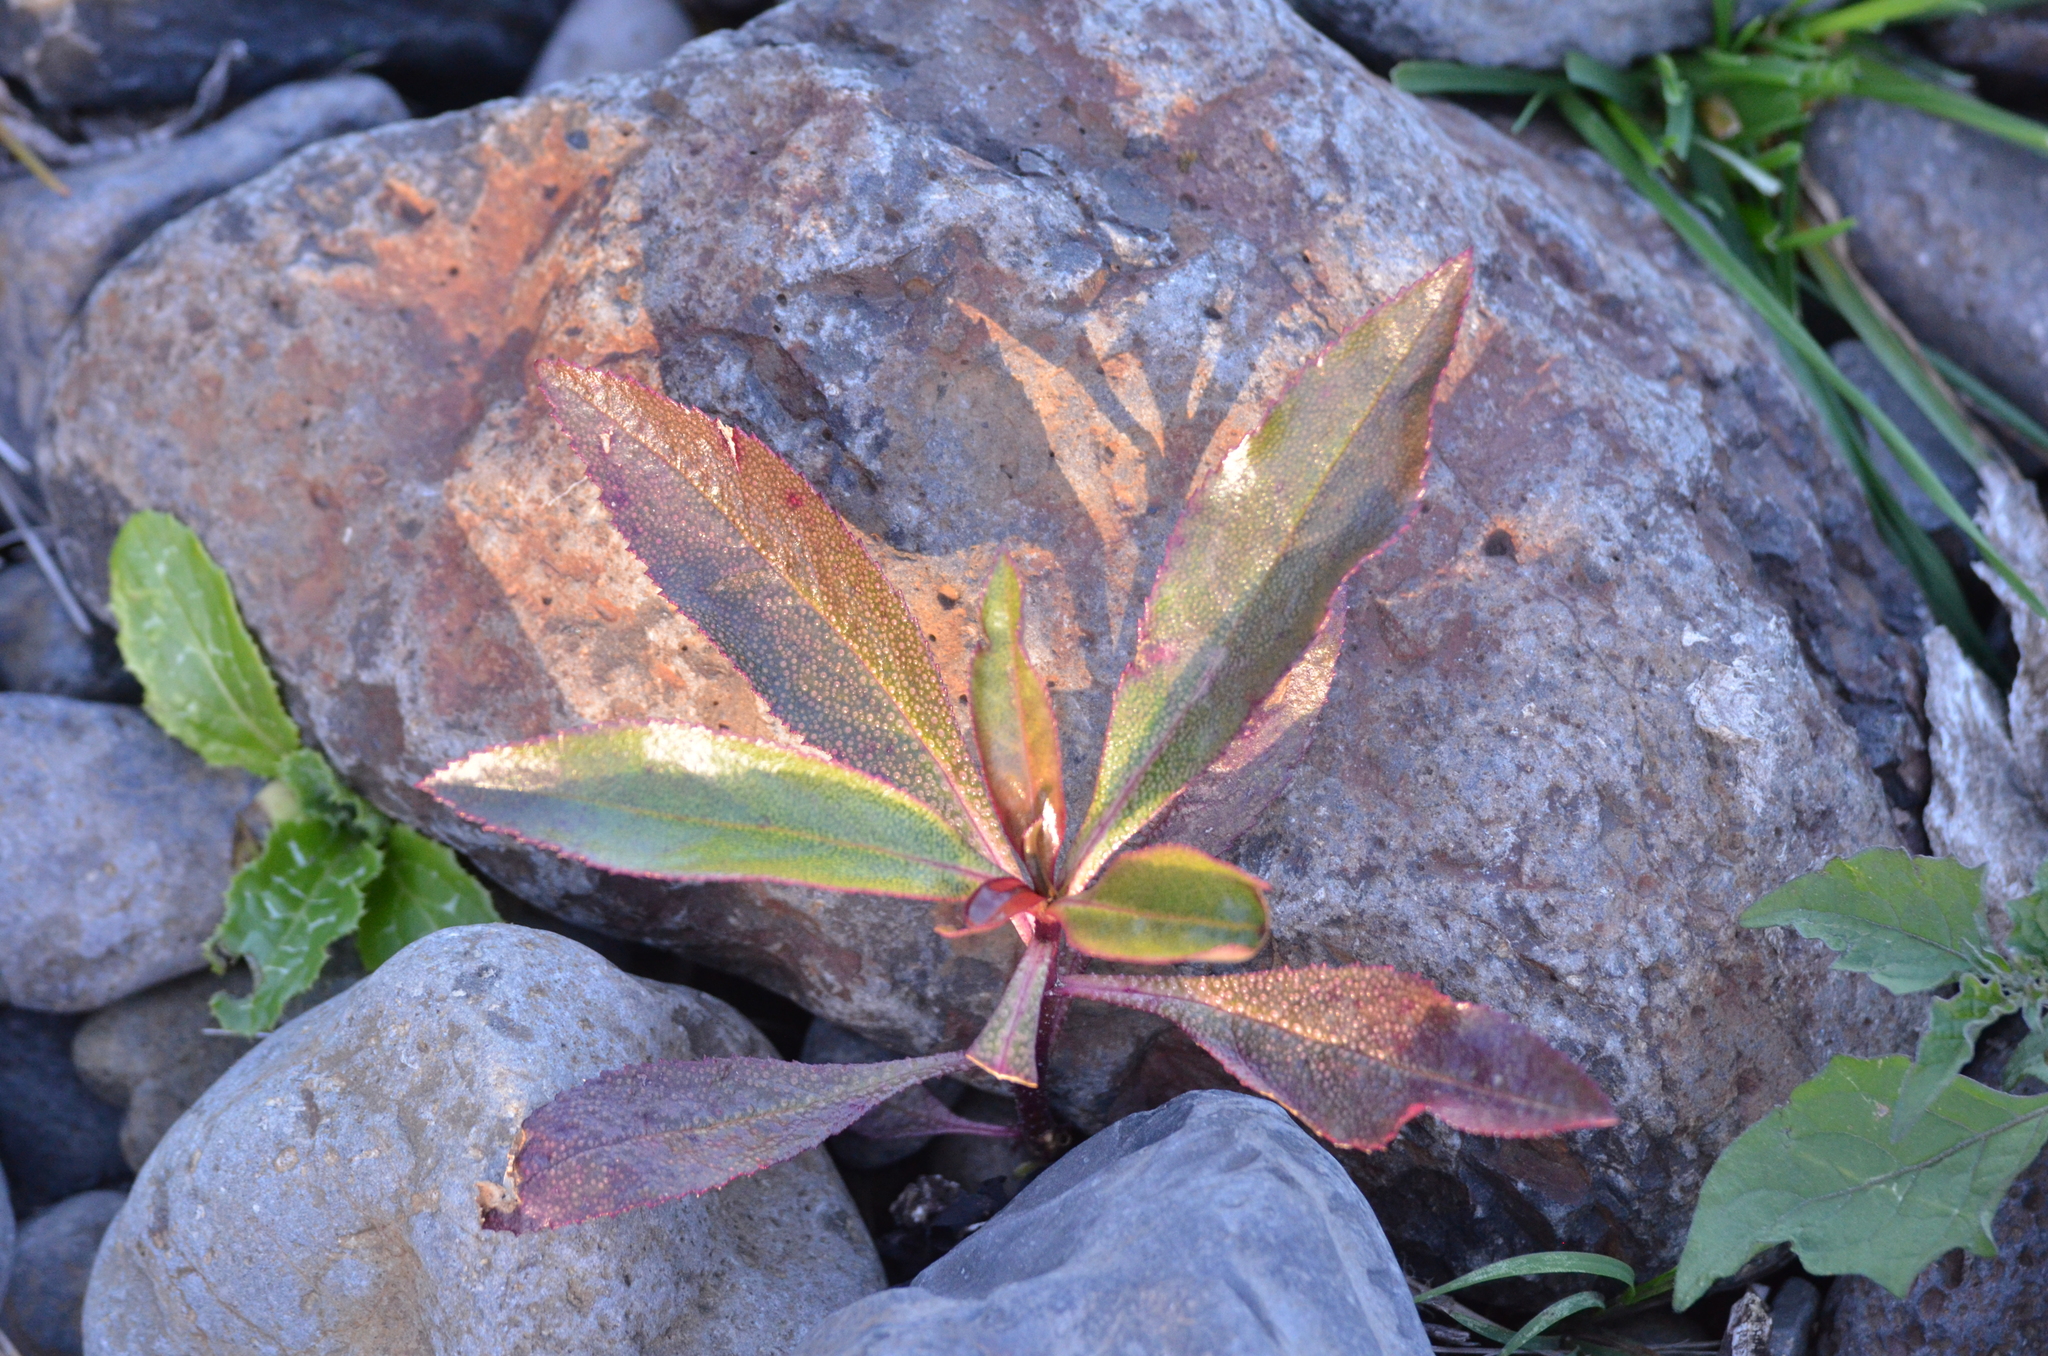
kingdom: Plantae
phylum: Tracheophyta
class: Magnoliopsida
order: Lamiales
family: Scrophulariaceae
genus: Myoporum
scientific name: Myoporum laetum
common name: Ngaio tree
